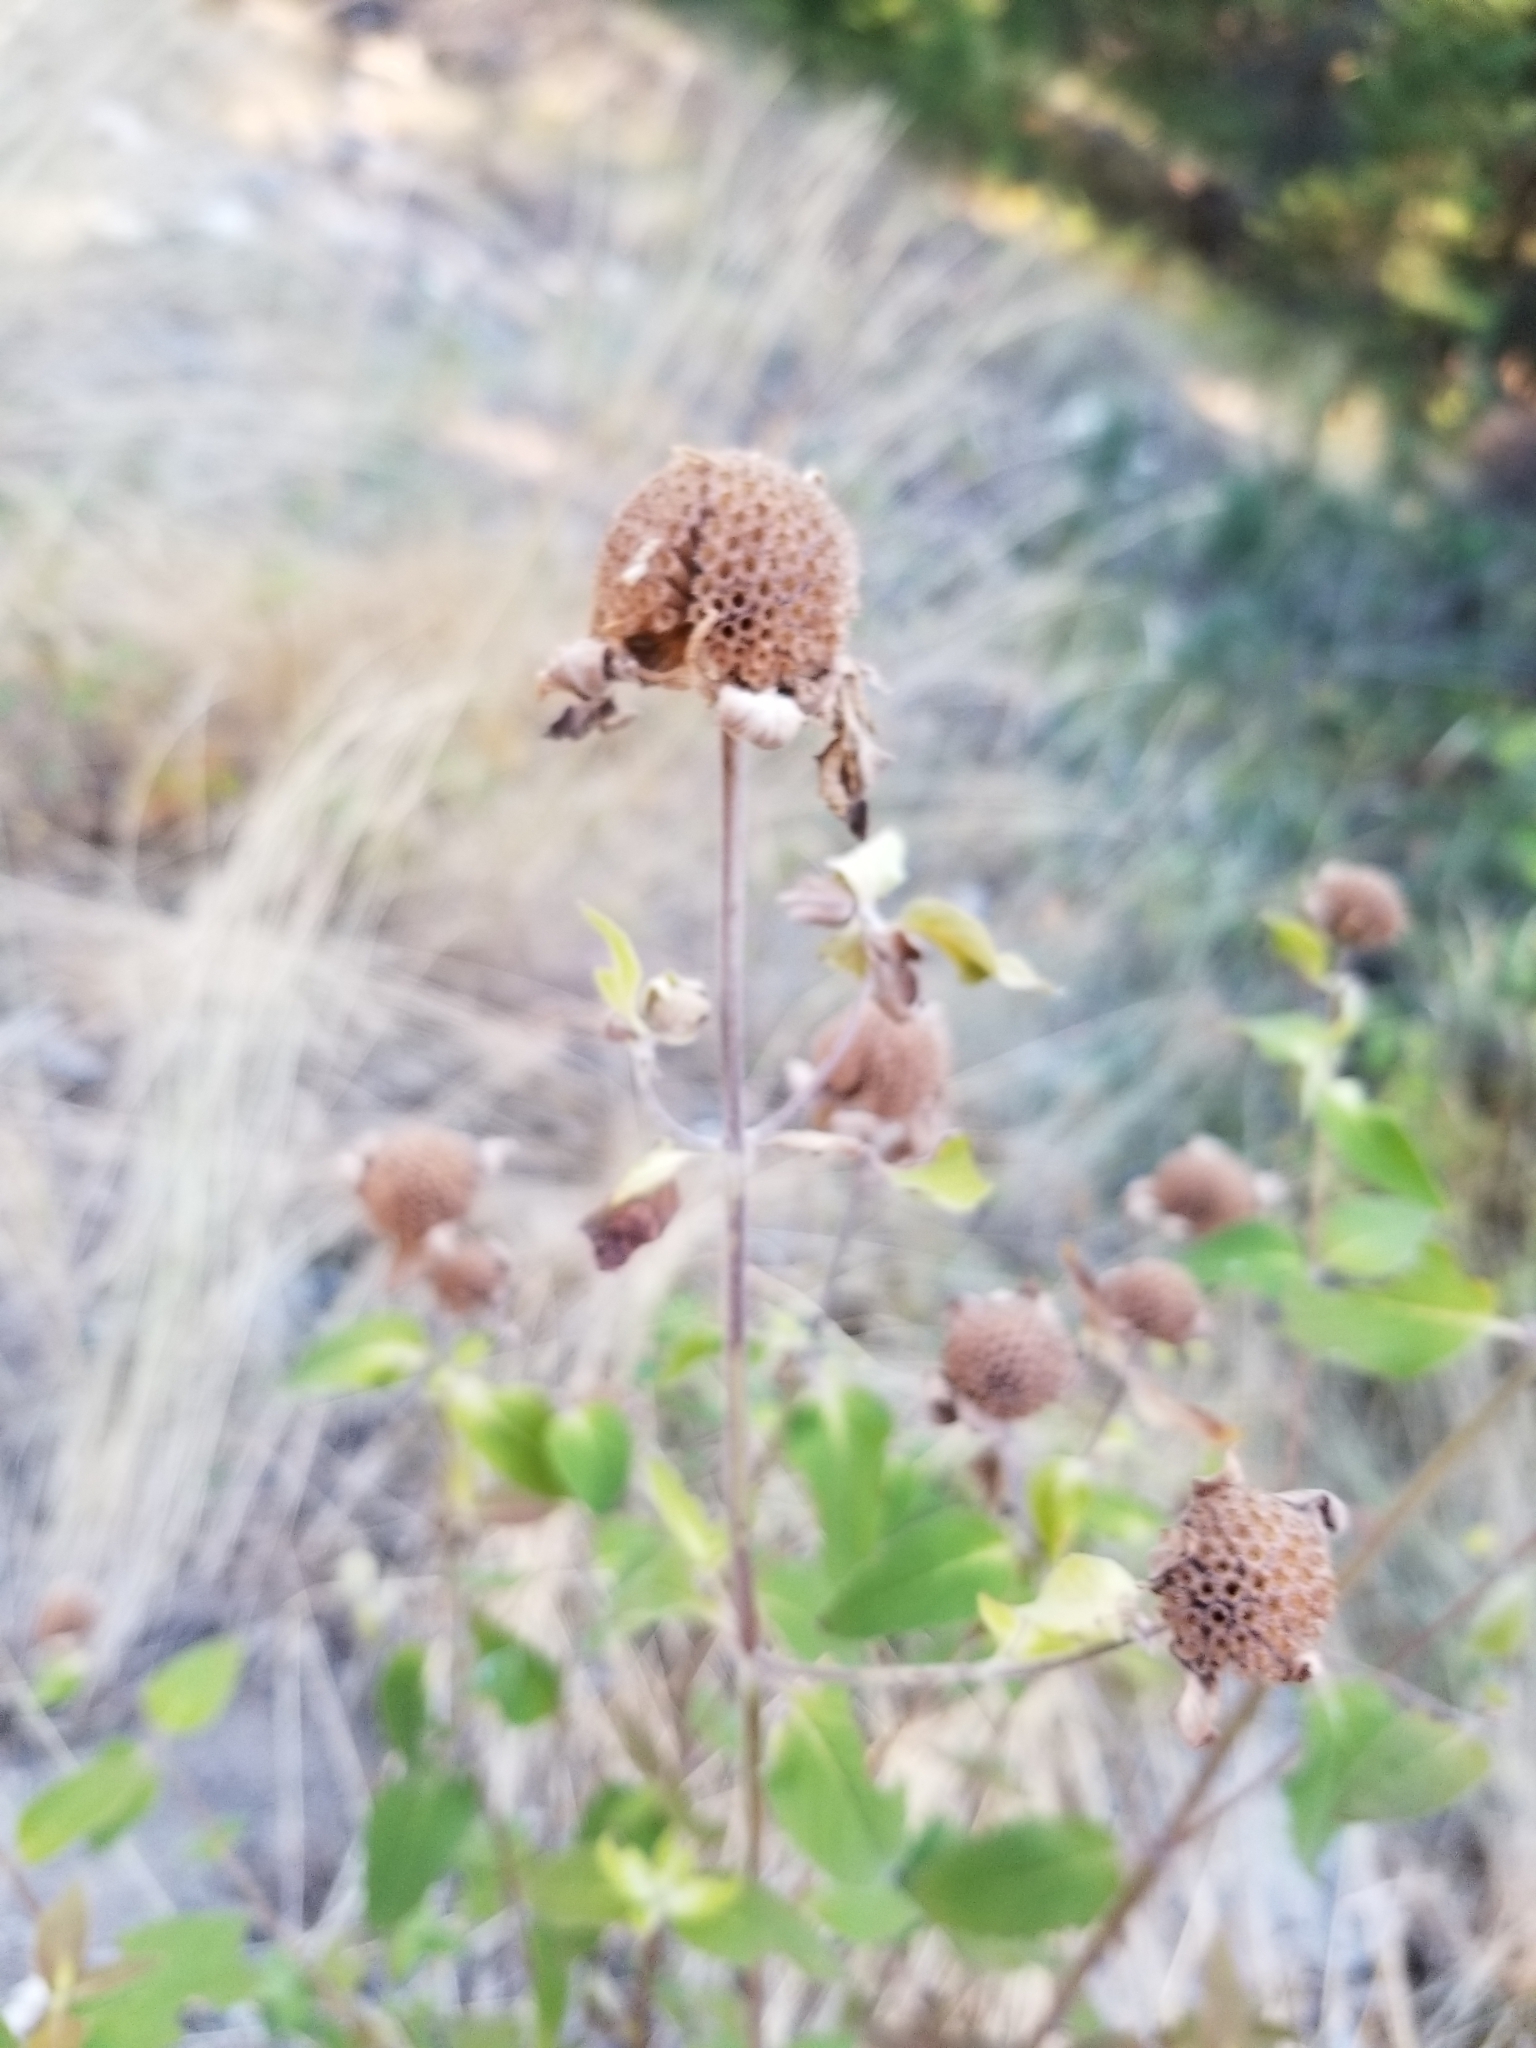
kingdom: Plantae
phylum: Tracheophyta
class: Magnoliopsida
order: Lamiales
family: Lamiaceae
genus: Monarda
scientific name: Monarda fistulosa
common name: Purple beebalm
